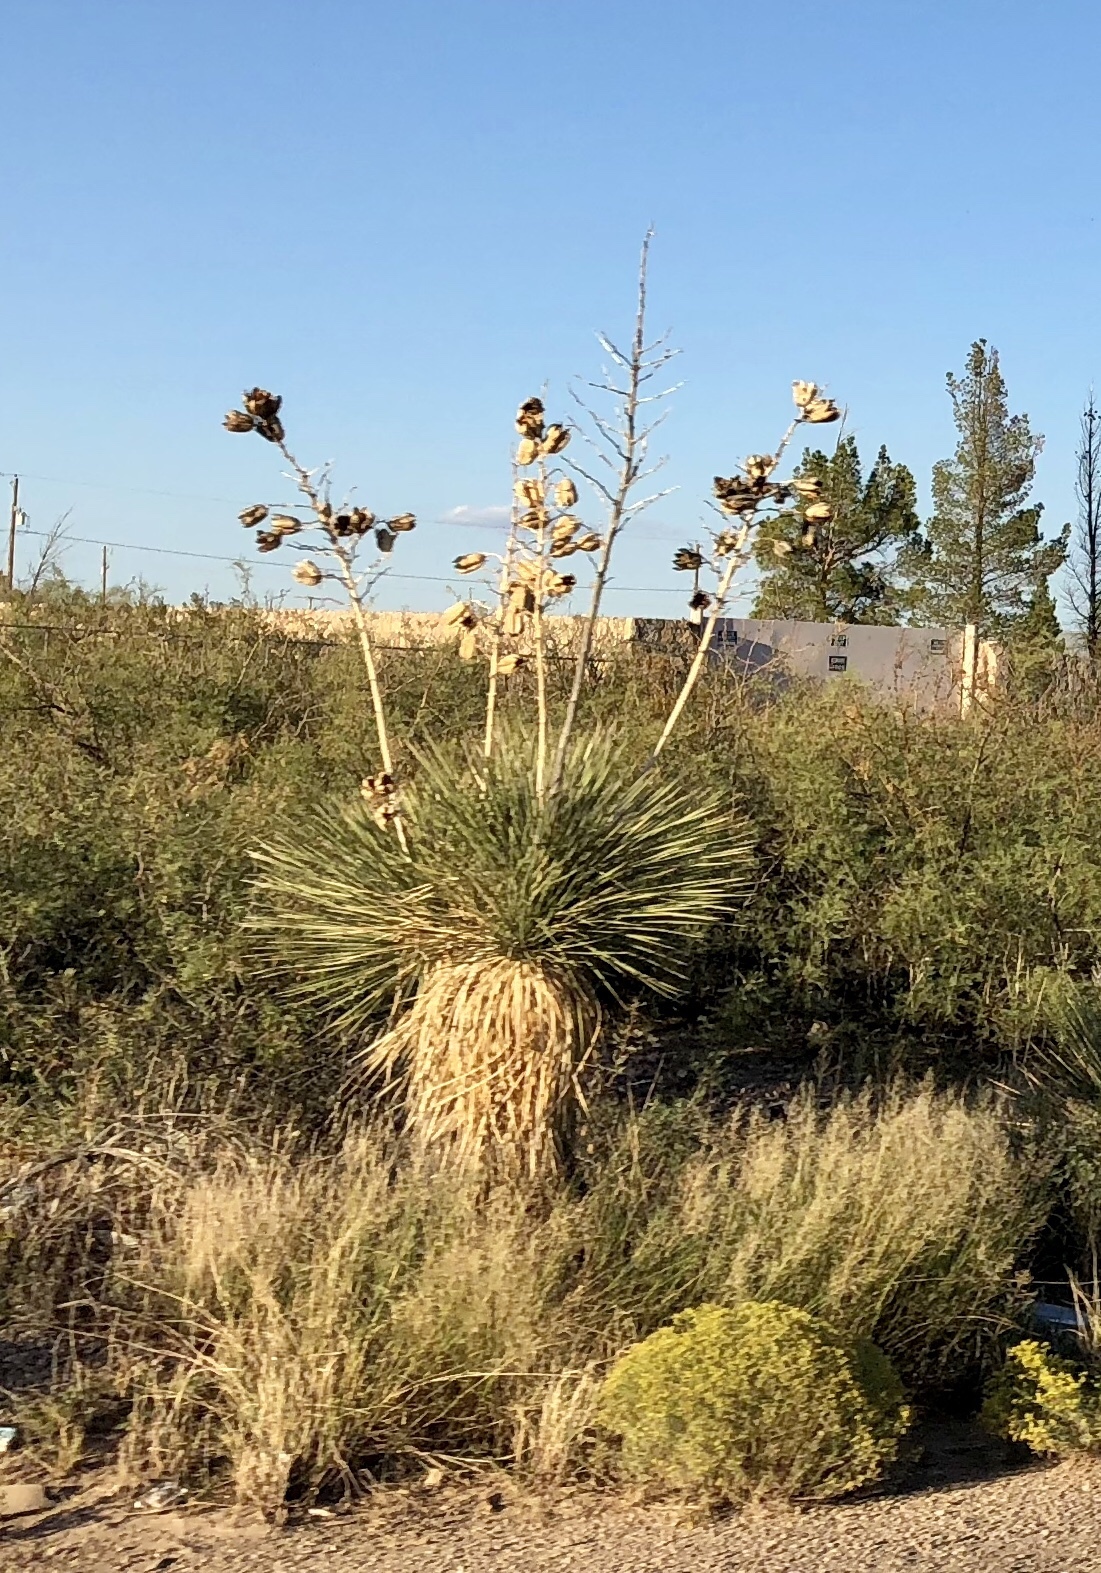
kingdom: Plantae
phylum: Tracheophyta
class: Liliopsida
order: Asparagales
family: Asparagaceae
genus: Yucca
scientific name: Yucca elata
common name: Palmella
